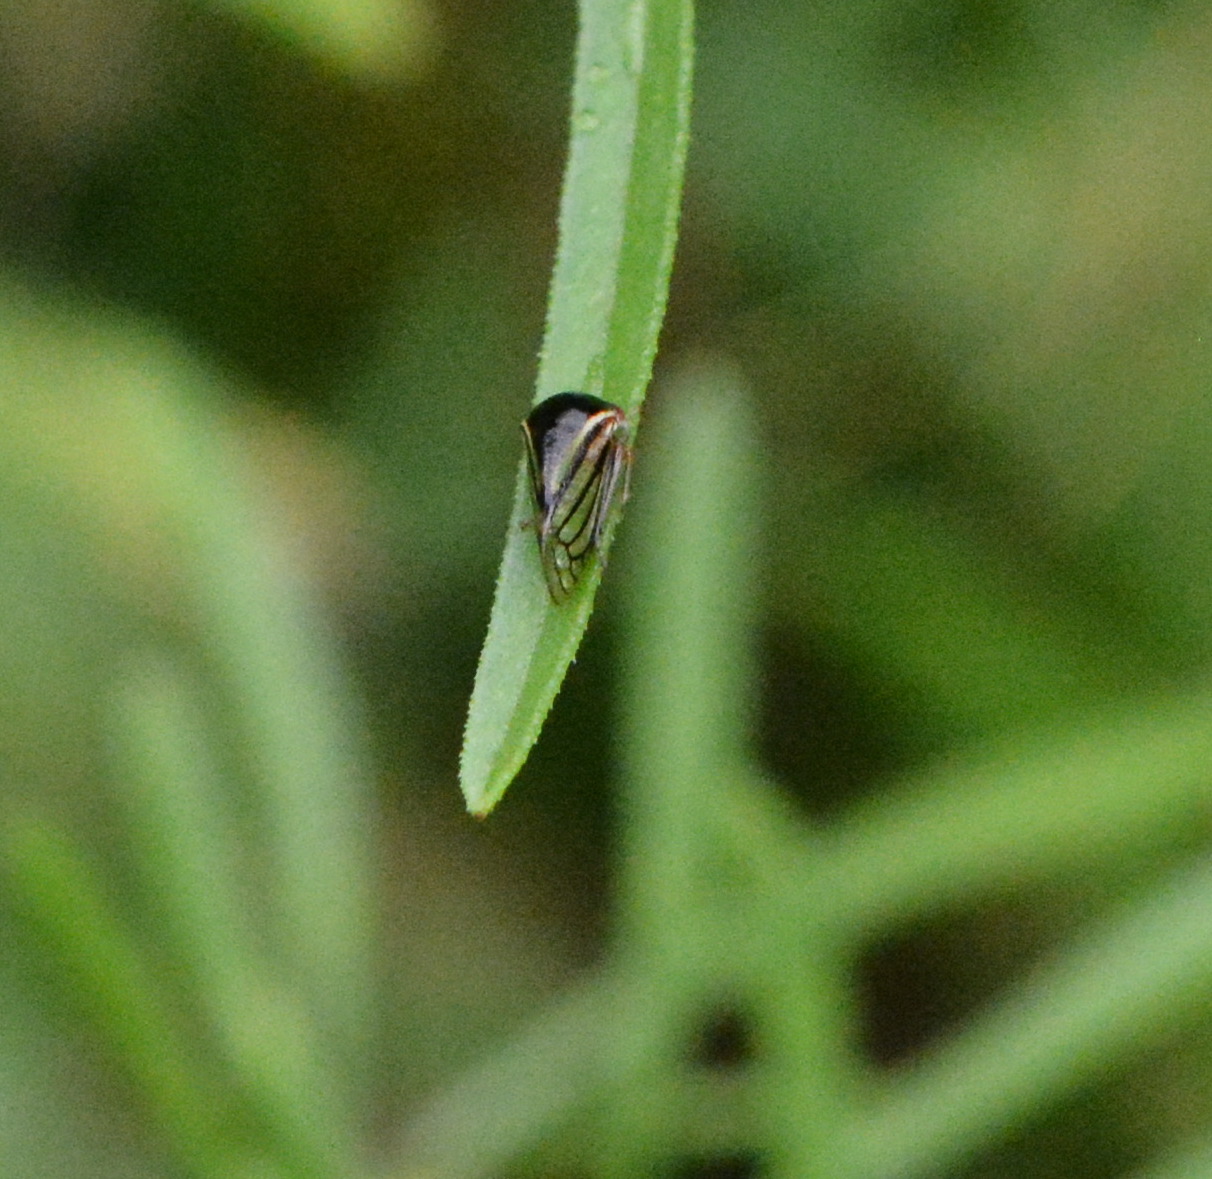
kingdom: Animalia
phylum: Arthropoda
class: Insecta
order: Hemiptera
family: Membracidae
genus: Acutalis
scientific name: Acutalis tartarea
